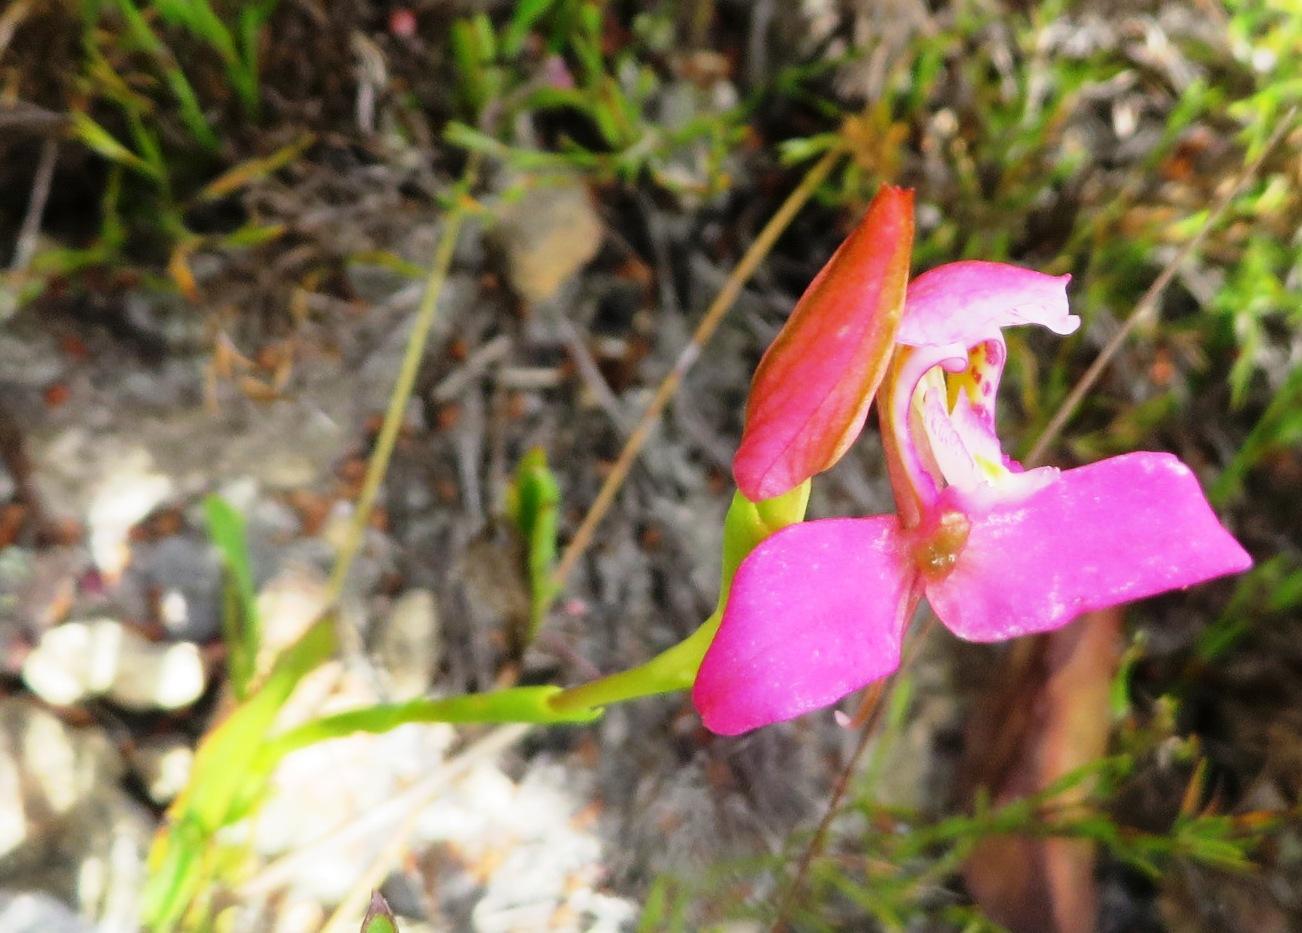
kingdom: Plantae
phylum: Tracheophyta
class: Liliopsida
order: Asparagales
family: Orchidaceae
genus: Disa
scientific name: Disa filicornis
